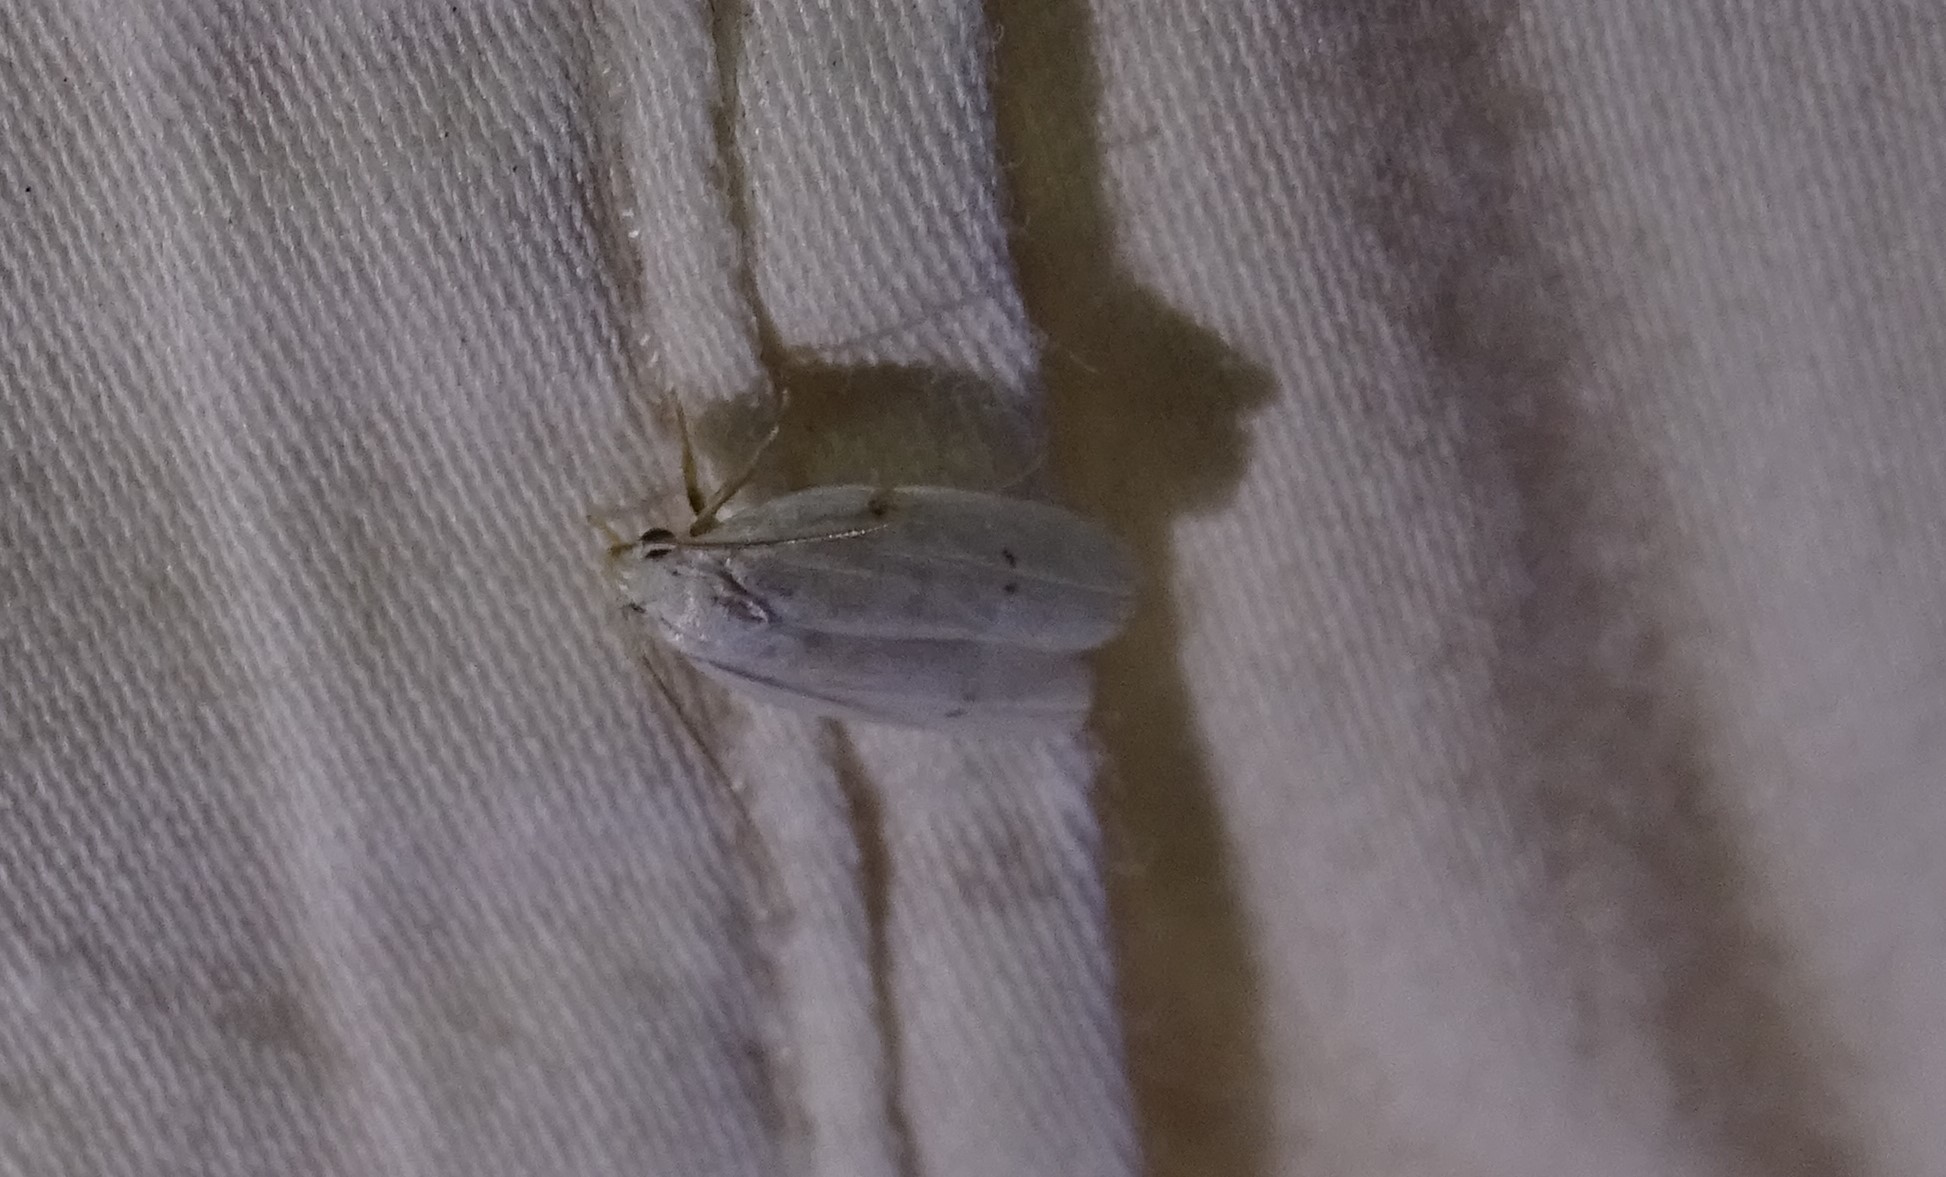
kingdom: Animalia
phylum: Arthropoda
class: Insecta
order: Lepidoptera
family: Depressariidae
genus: Antaeotricha
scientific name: Antaeotricha albulella
